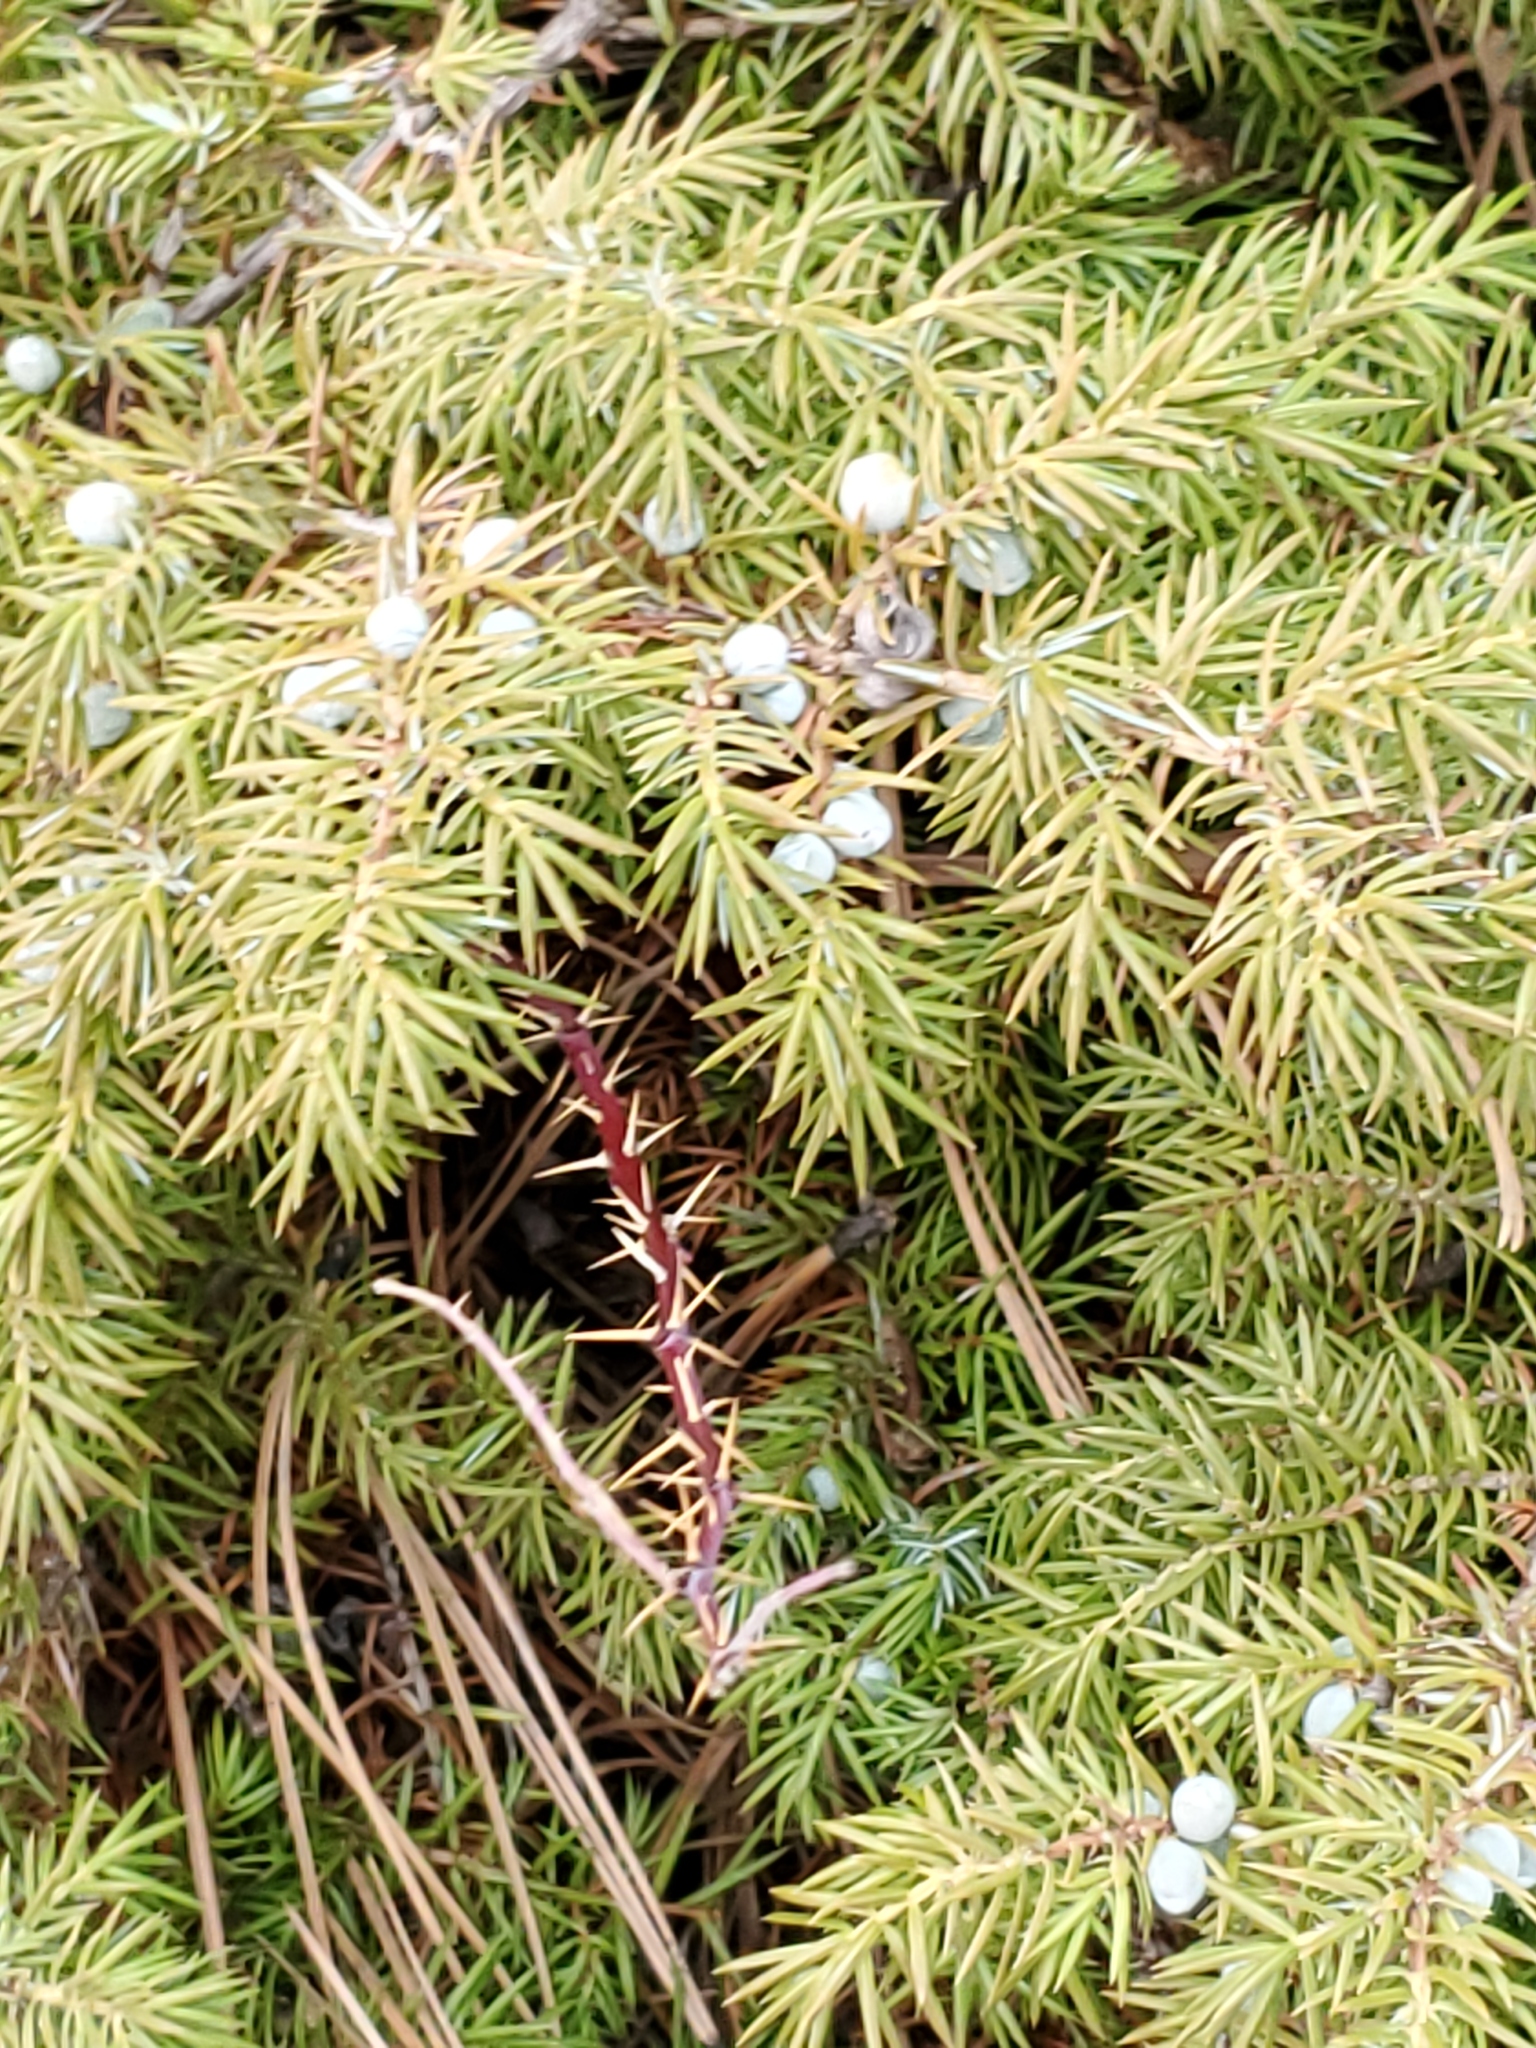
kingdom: Plantae
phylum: Tracheophyta
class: Pinopsida
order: Pinales
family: Cupressaceae
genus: Juniperus
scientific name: Juniperus communis
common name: Common juniper
